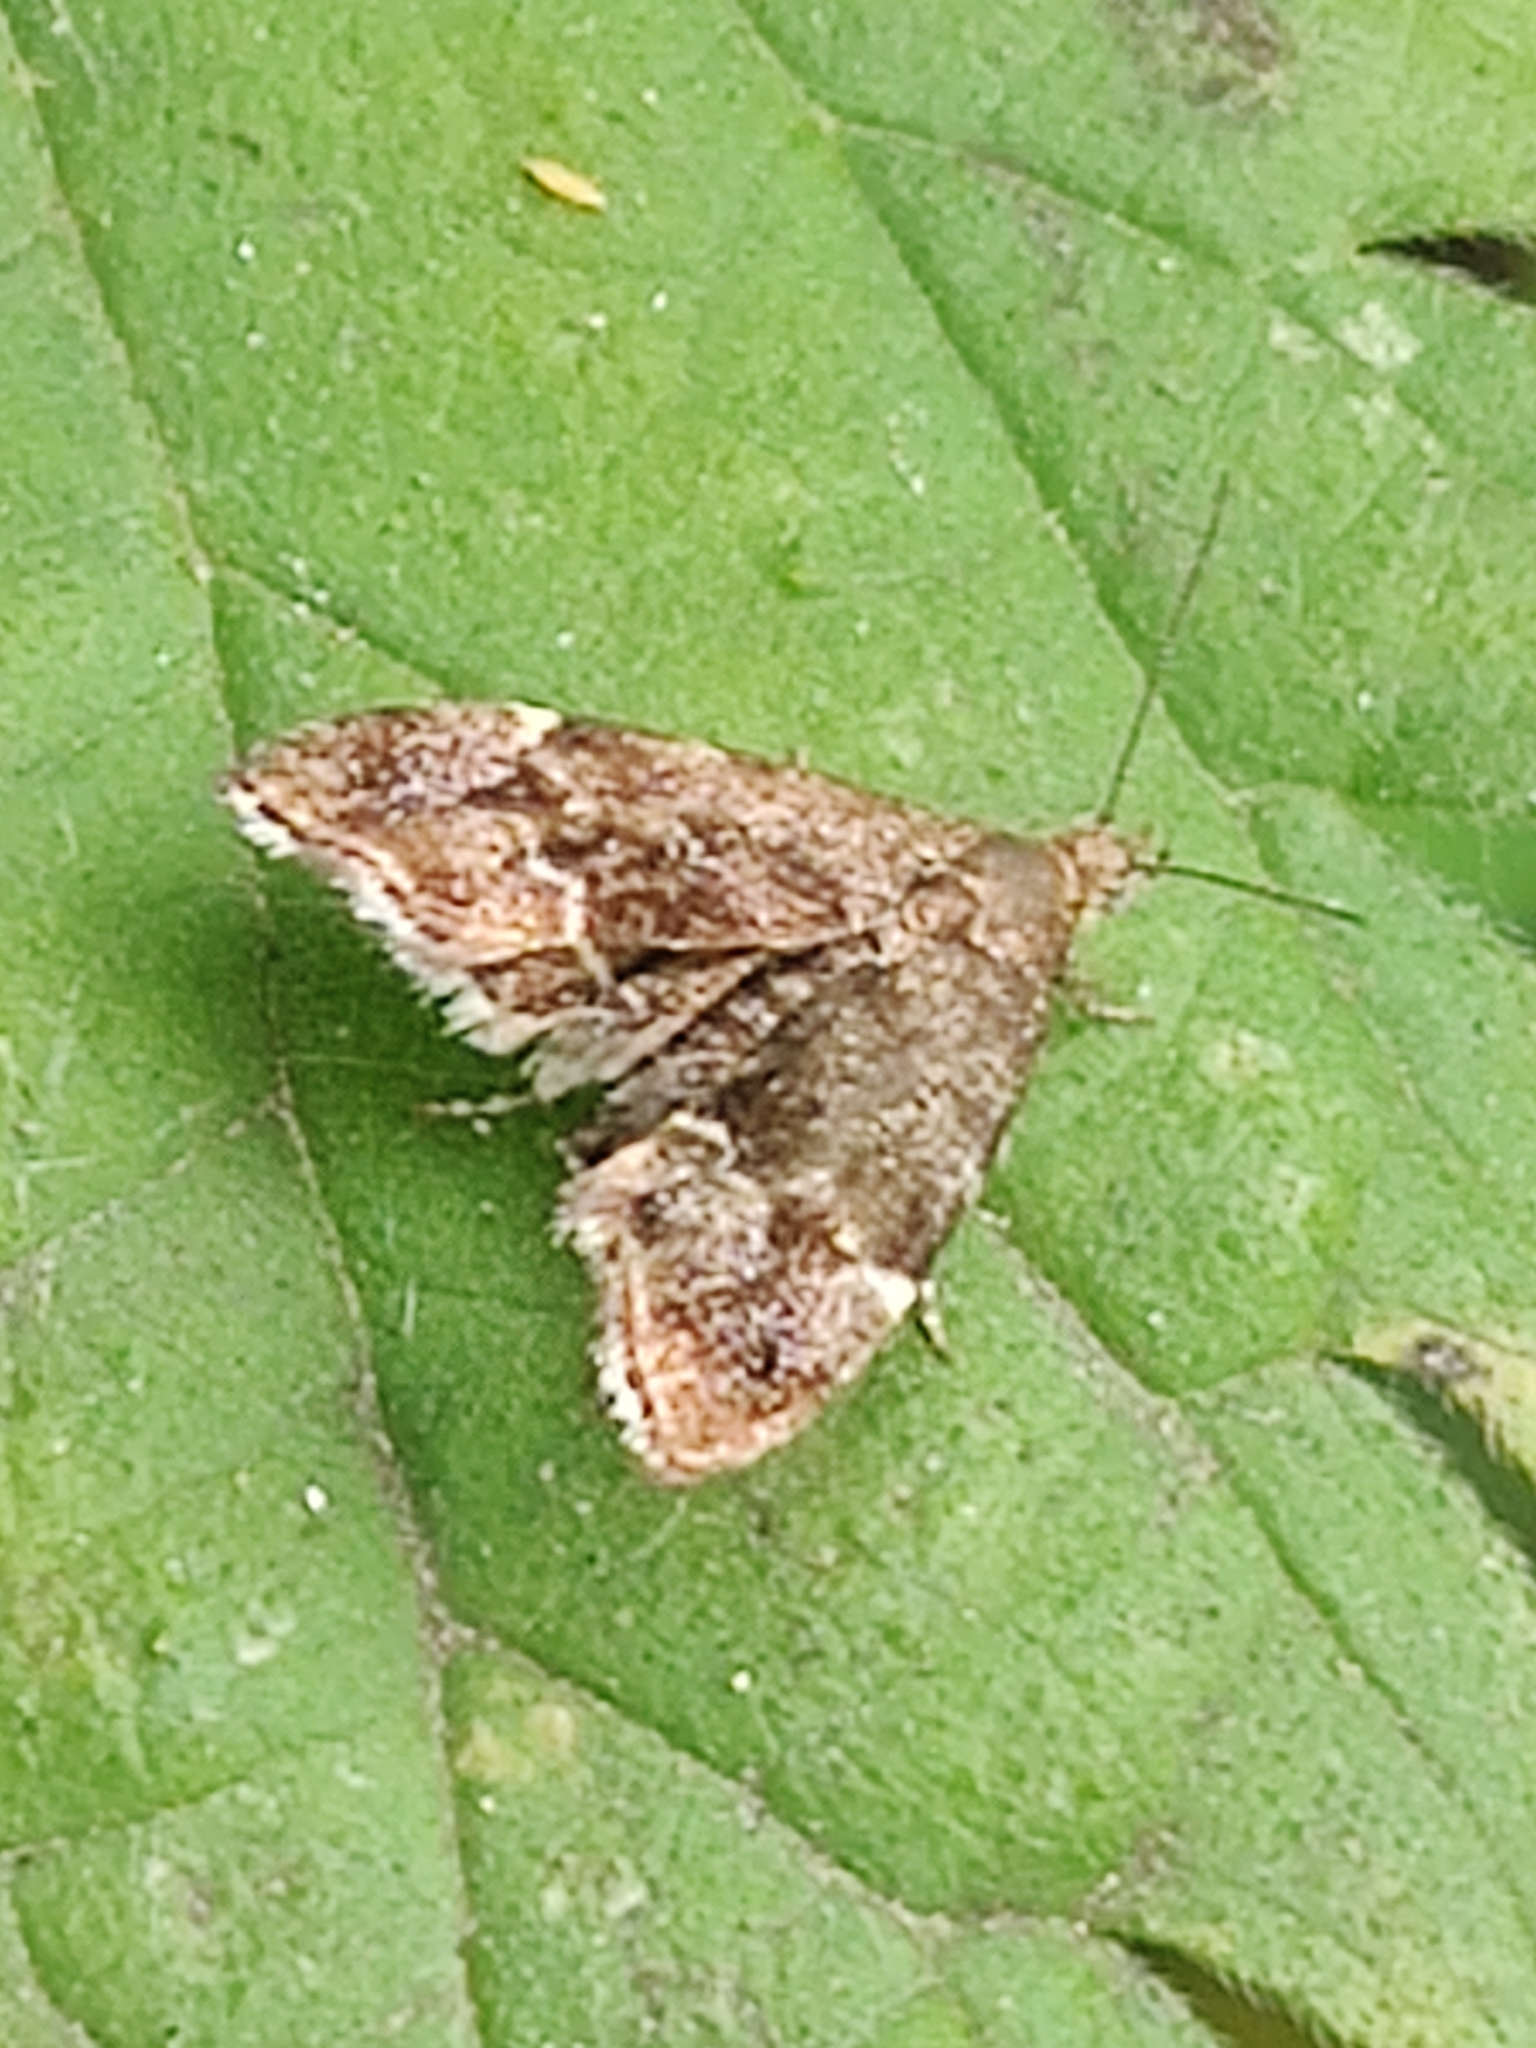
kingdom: Animalia
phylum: Arthropoda
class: Insecta
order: Lepidoptera
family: Choreutidae
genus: Anthophila
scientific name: Anthophila fabriciana
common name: Nettle-tap
